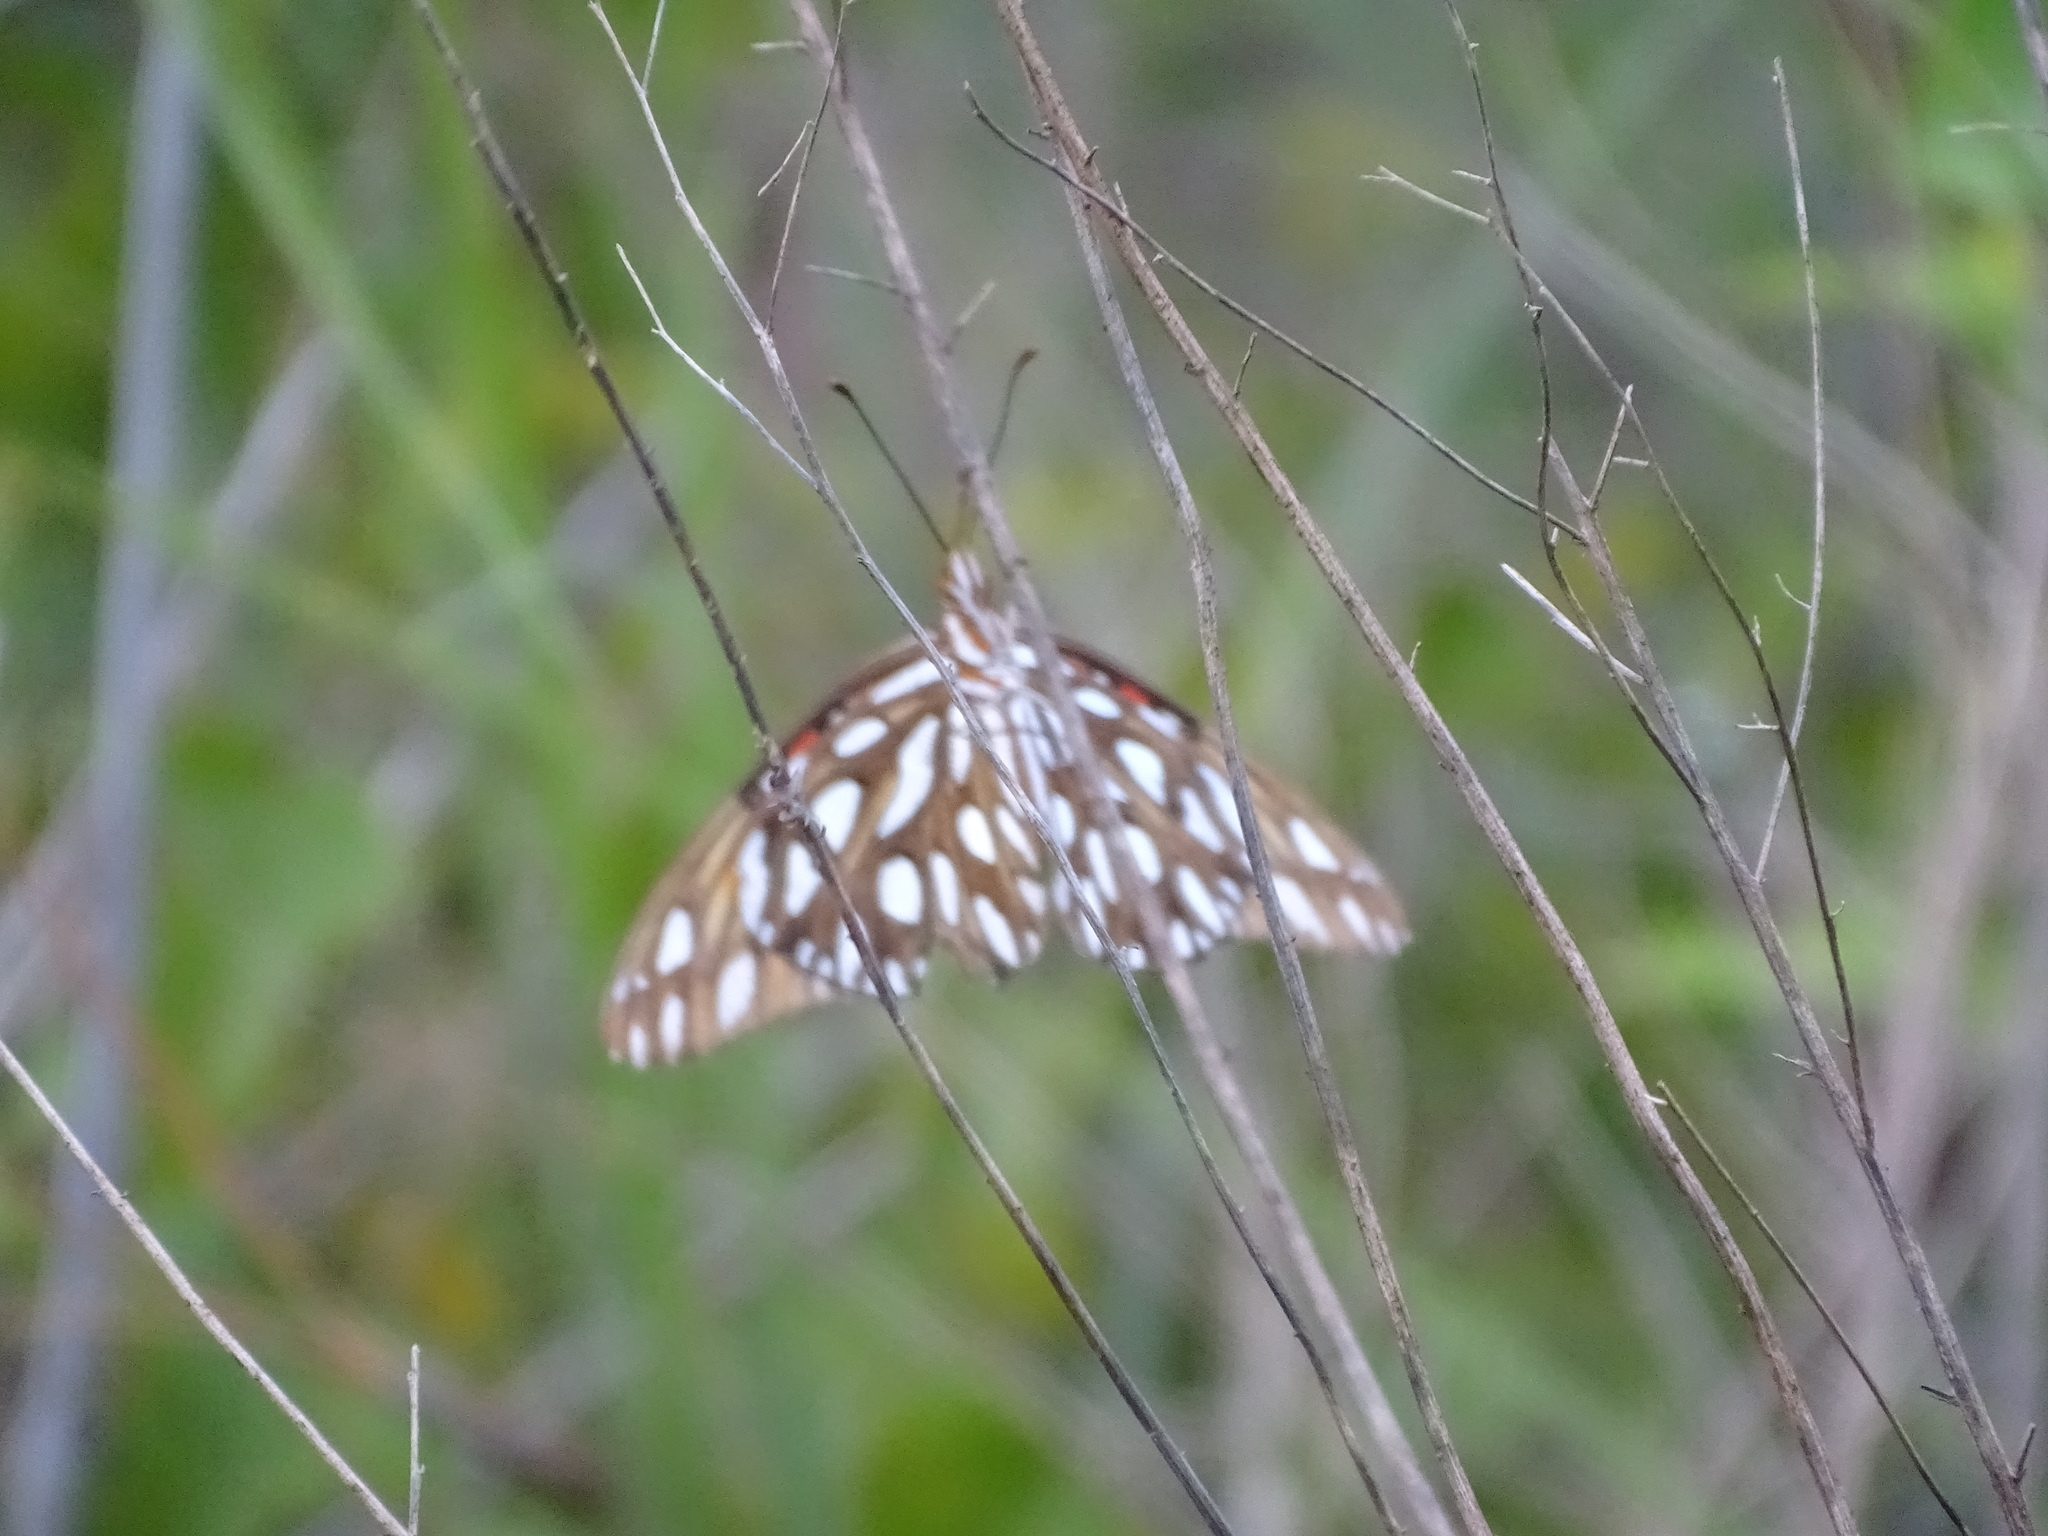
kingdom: Animalia
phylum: Arthropoda
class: Insecta
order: Lepidoptera
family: Nymphalidae
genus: Dione
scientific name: Dione vanillae
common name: Gulf fritillary
